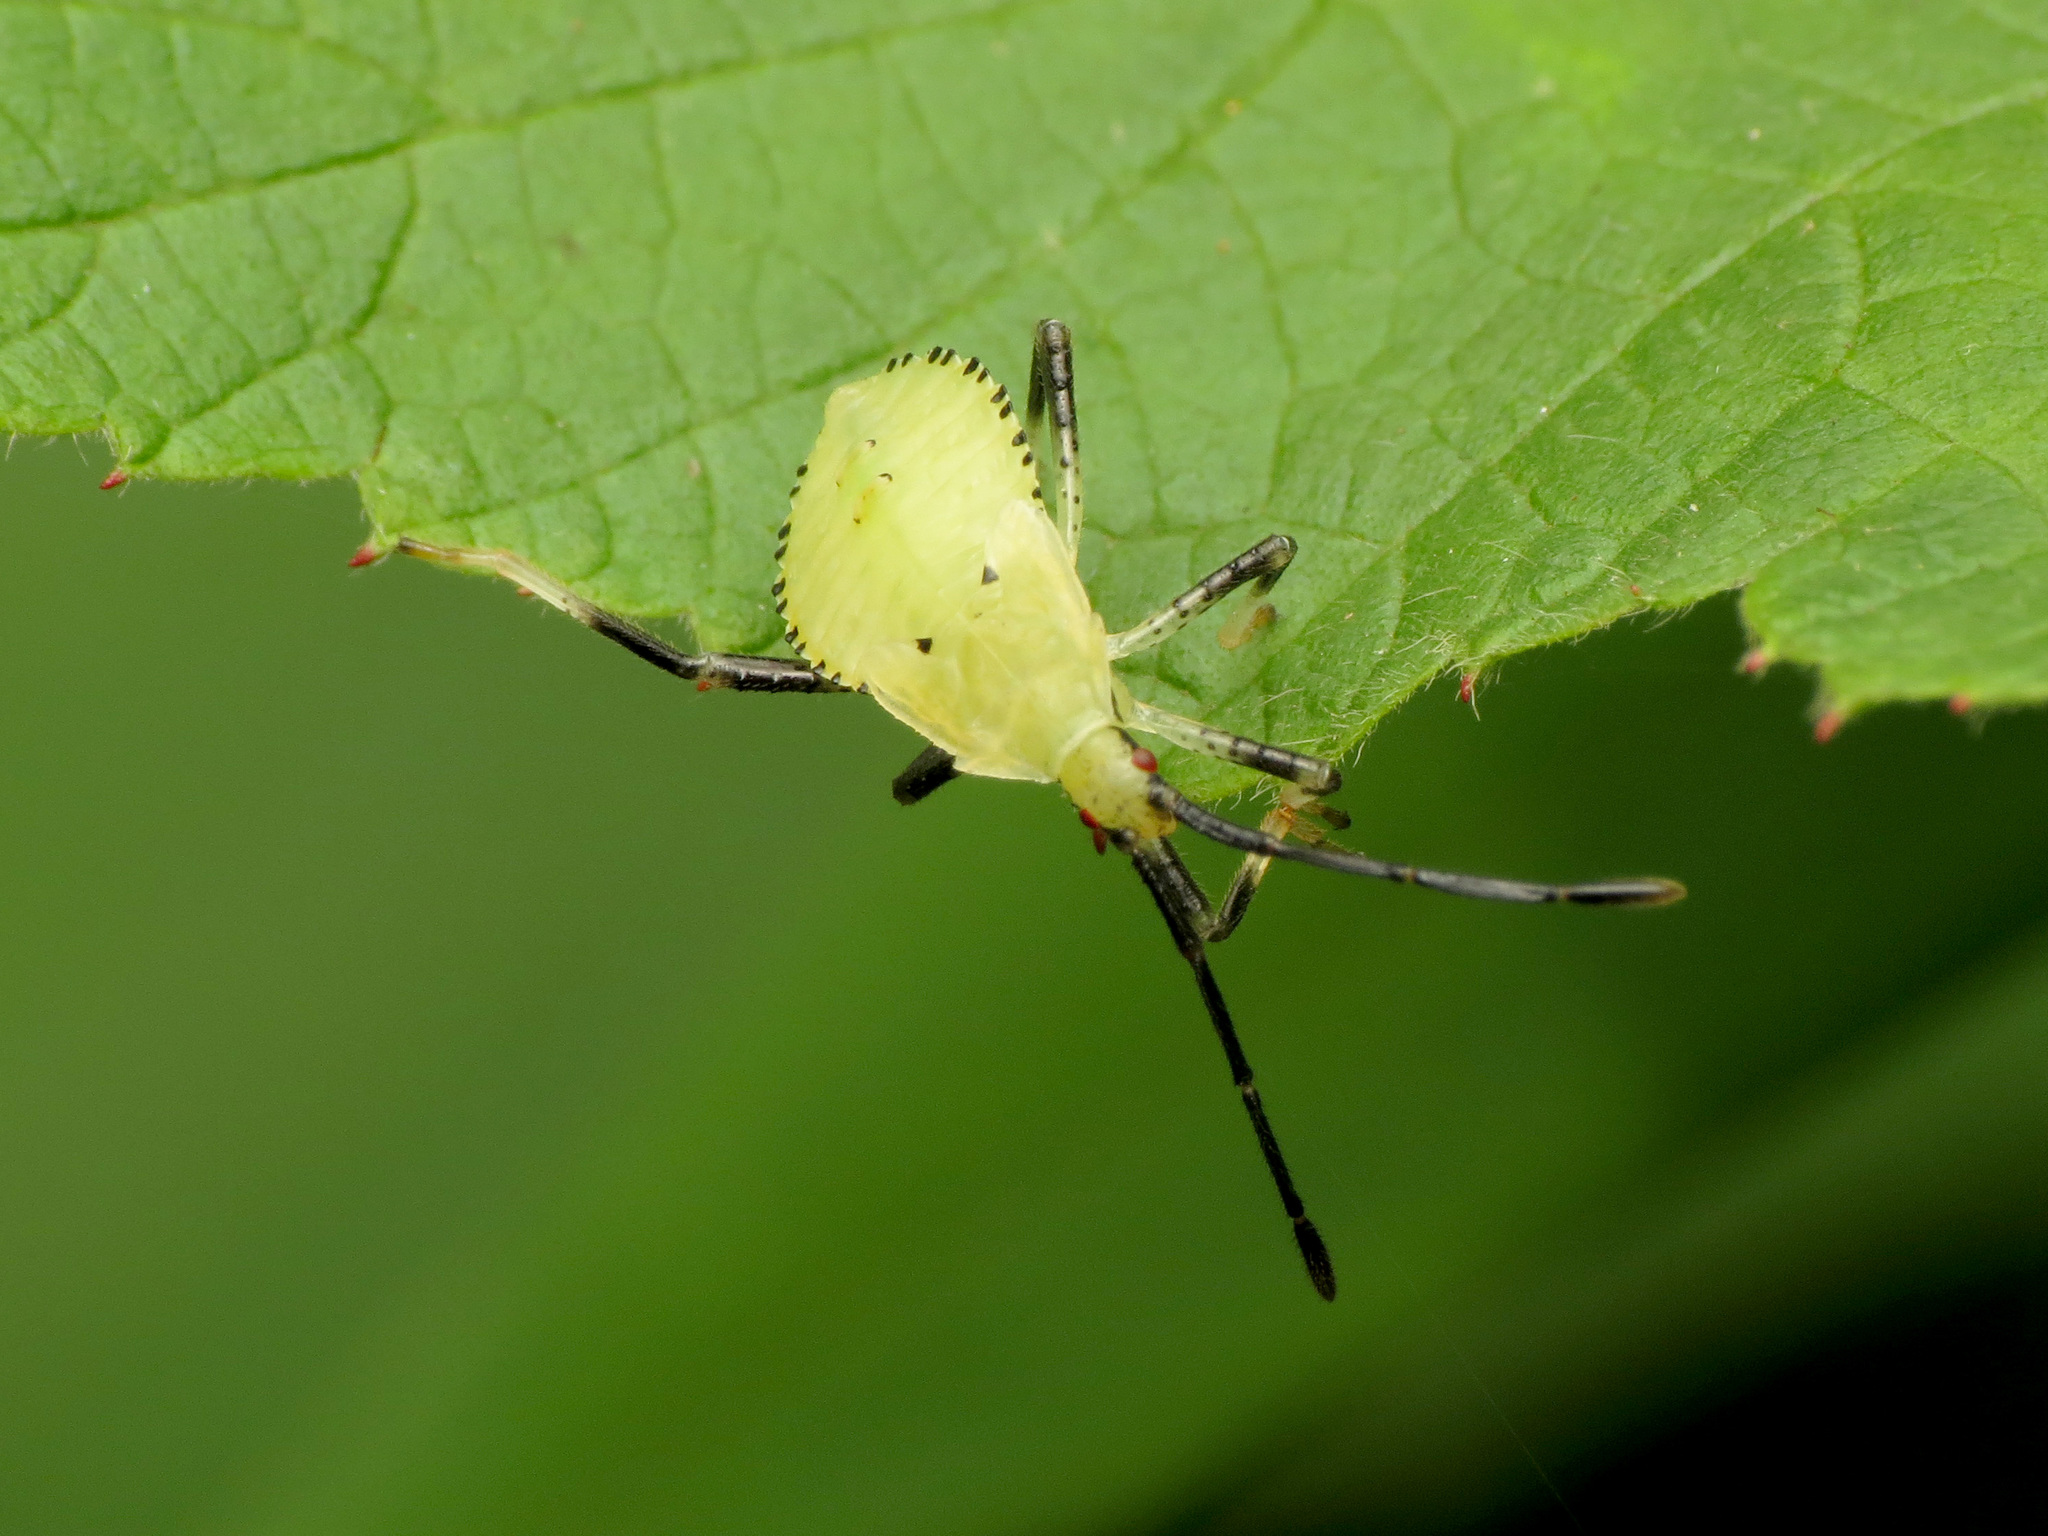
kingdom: Animalia
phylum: Arthropoda
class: Insecta
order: Hemiptera
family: Coreidae
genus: Anasa
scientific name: Anasa repetita
